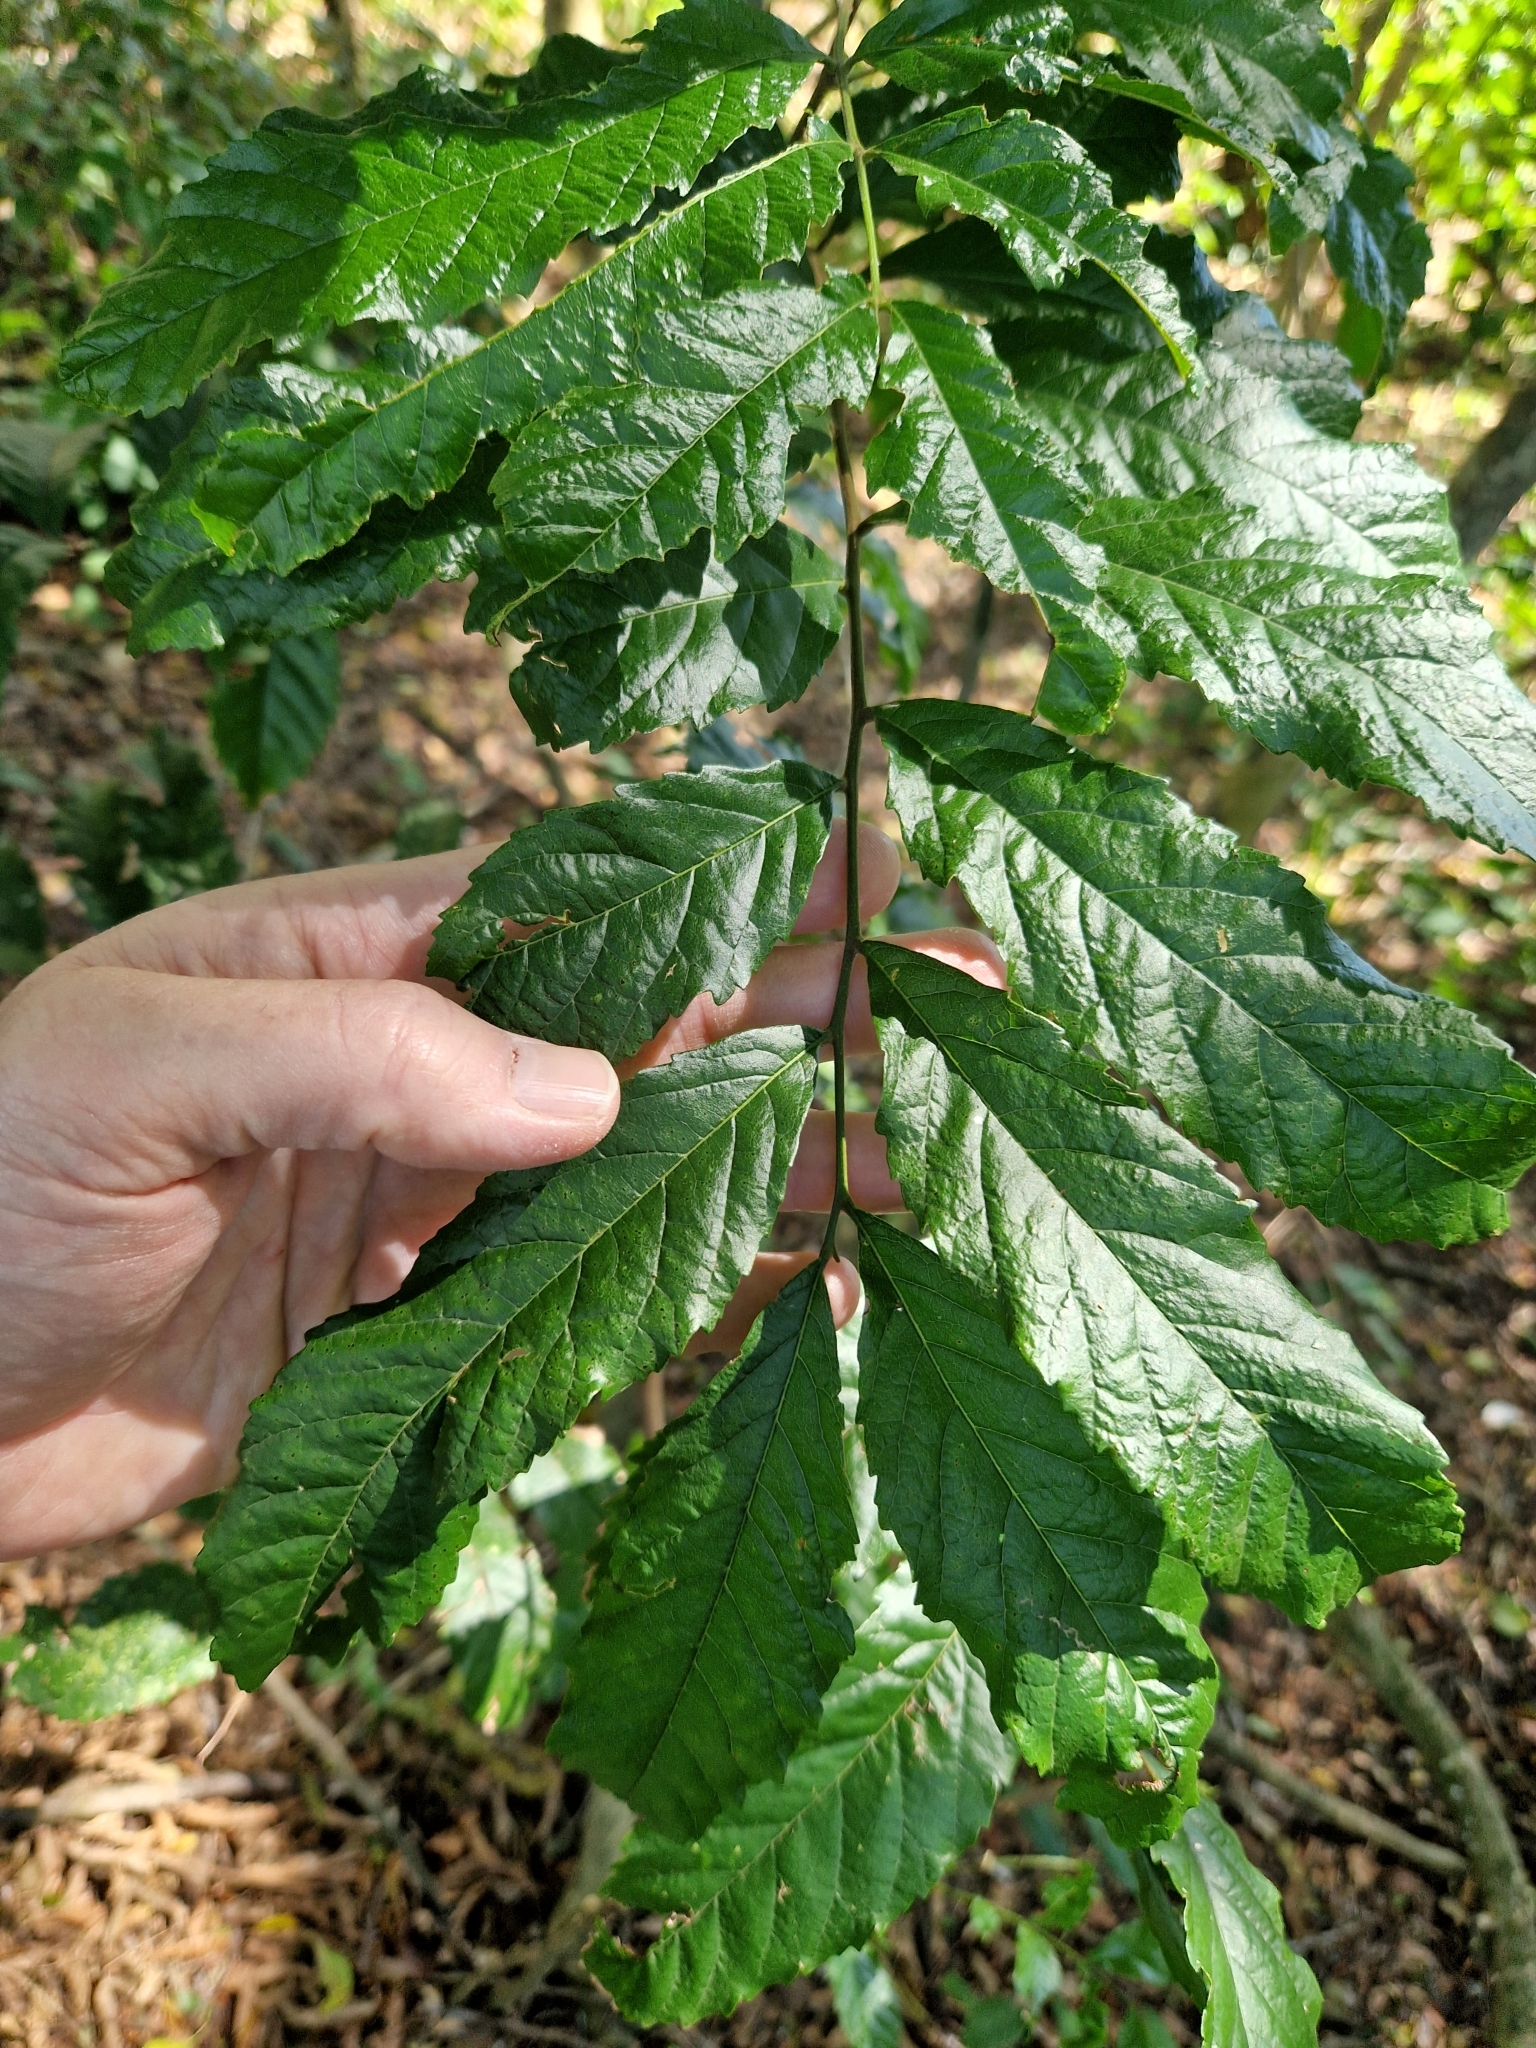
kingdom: Plantae
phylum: Tracheophyta
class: Magnoliopsida
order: Sapindales
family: Sapindaceae
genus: Cupania
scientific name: Cupania vernalis
